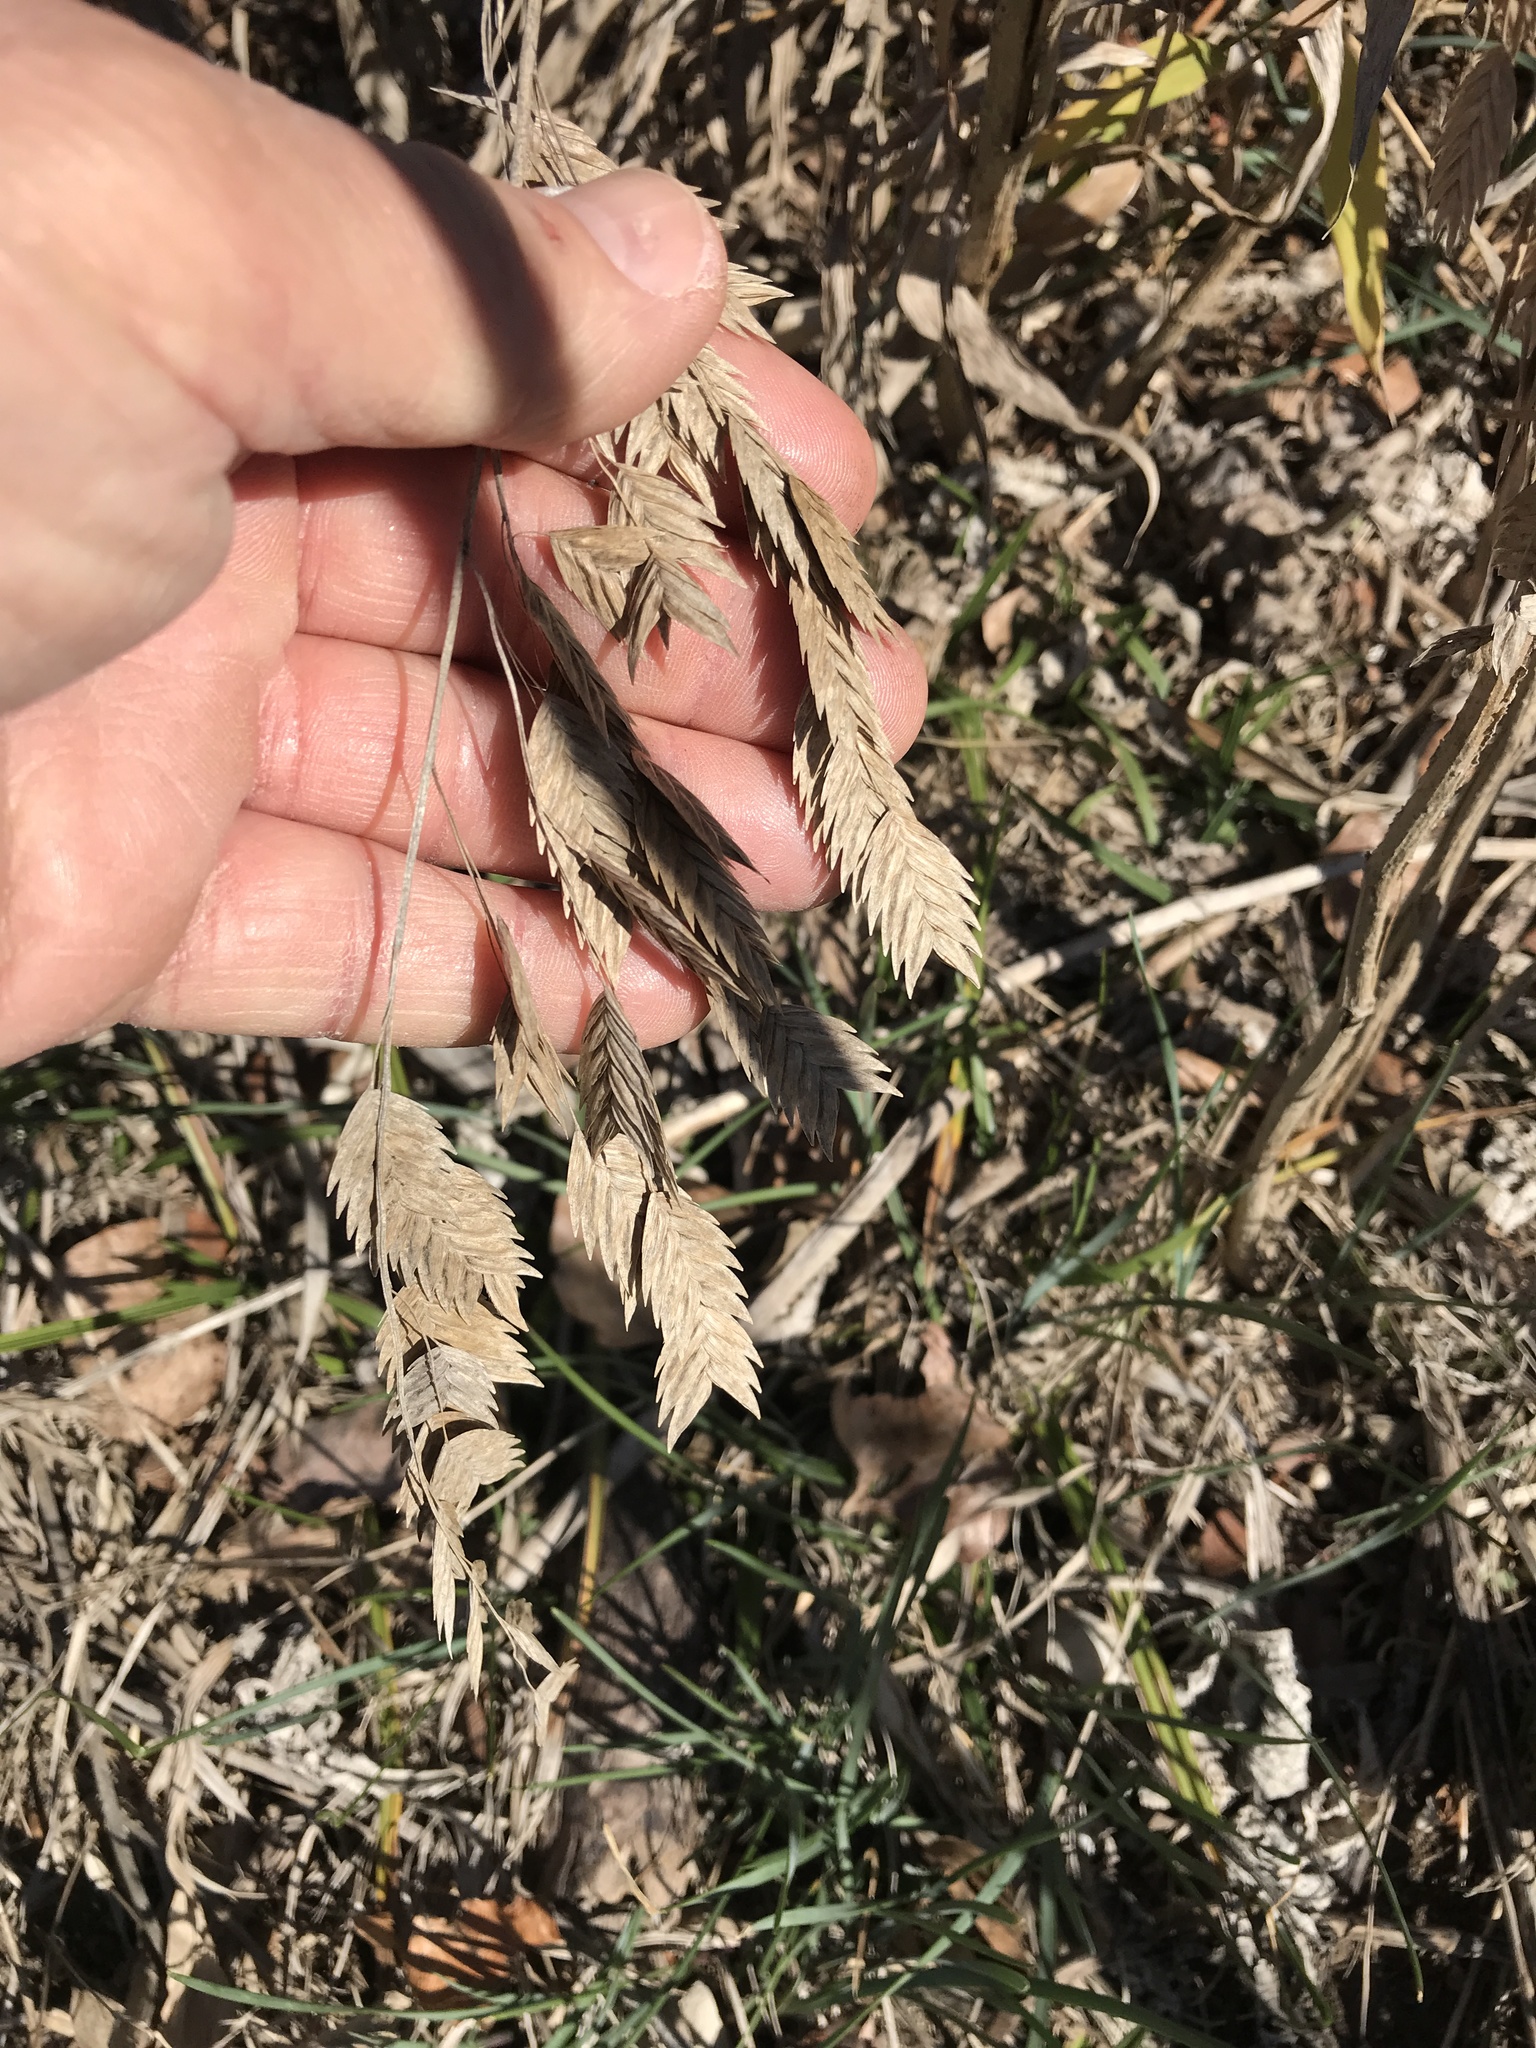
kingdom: Plantae
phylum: Tracheophyta
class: Liliopsida
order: Poales
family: Poaceae
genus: Chasmanthium
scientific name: Chasmanthium latifolium
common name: Broad-leaved chasmanthium
